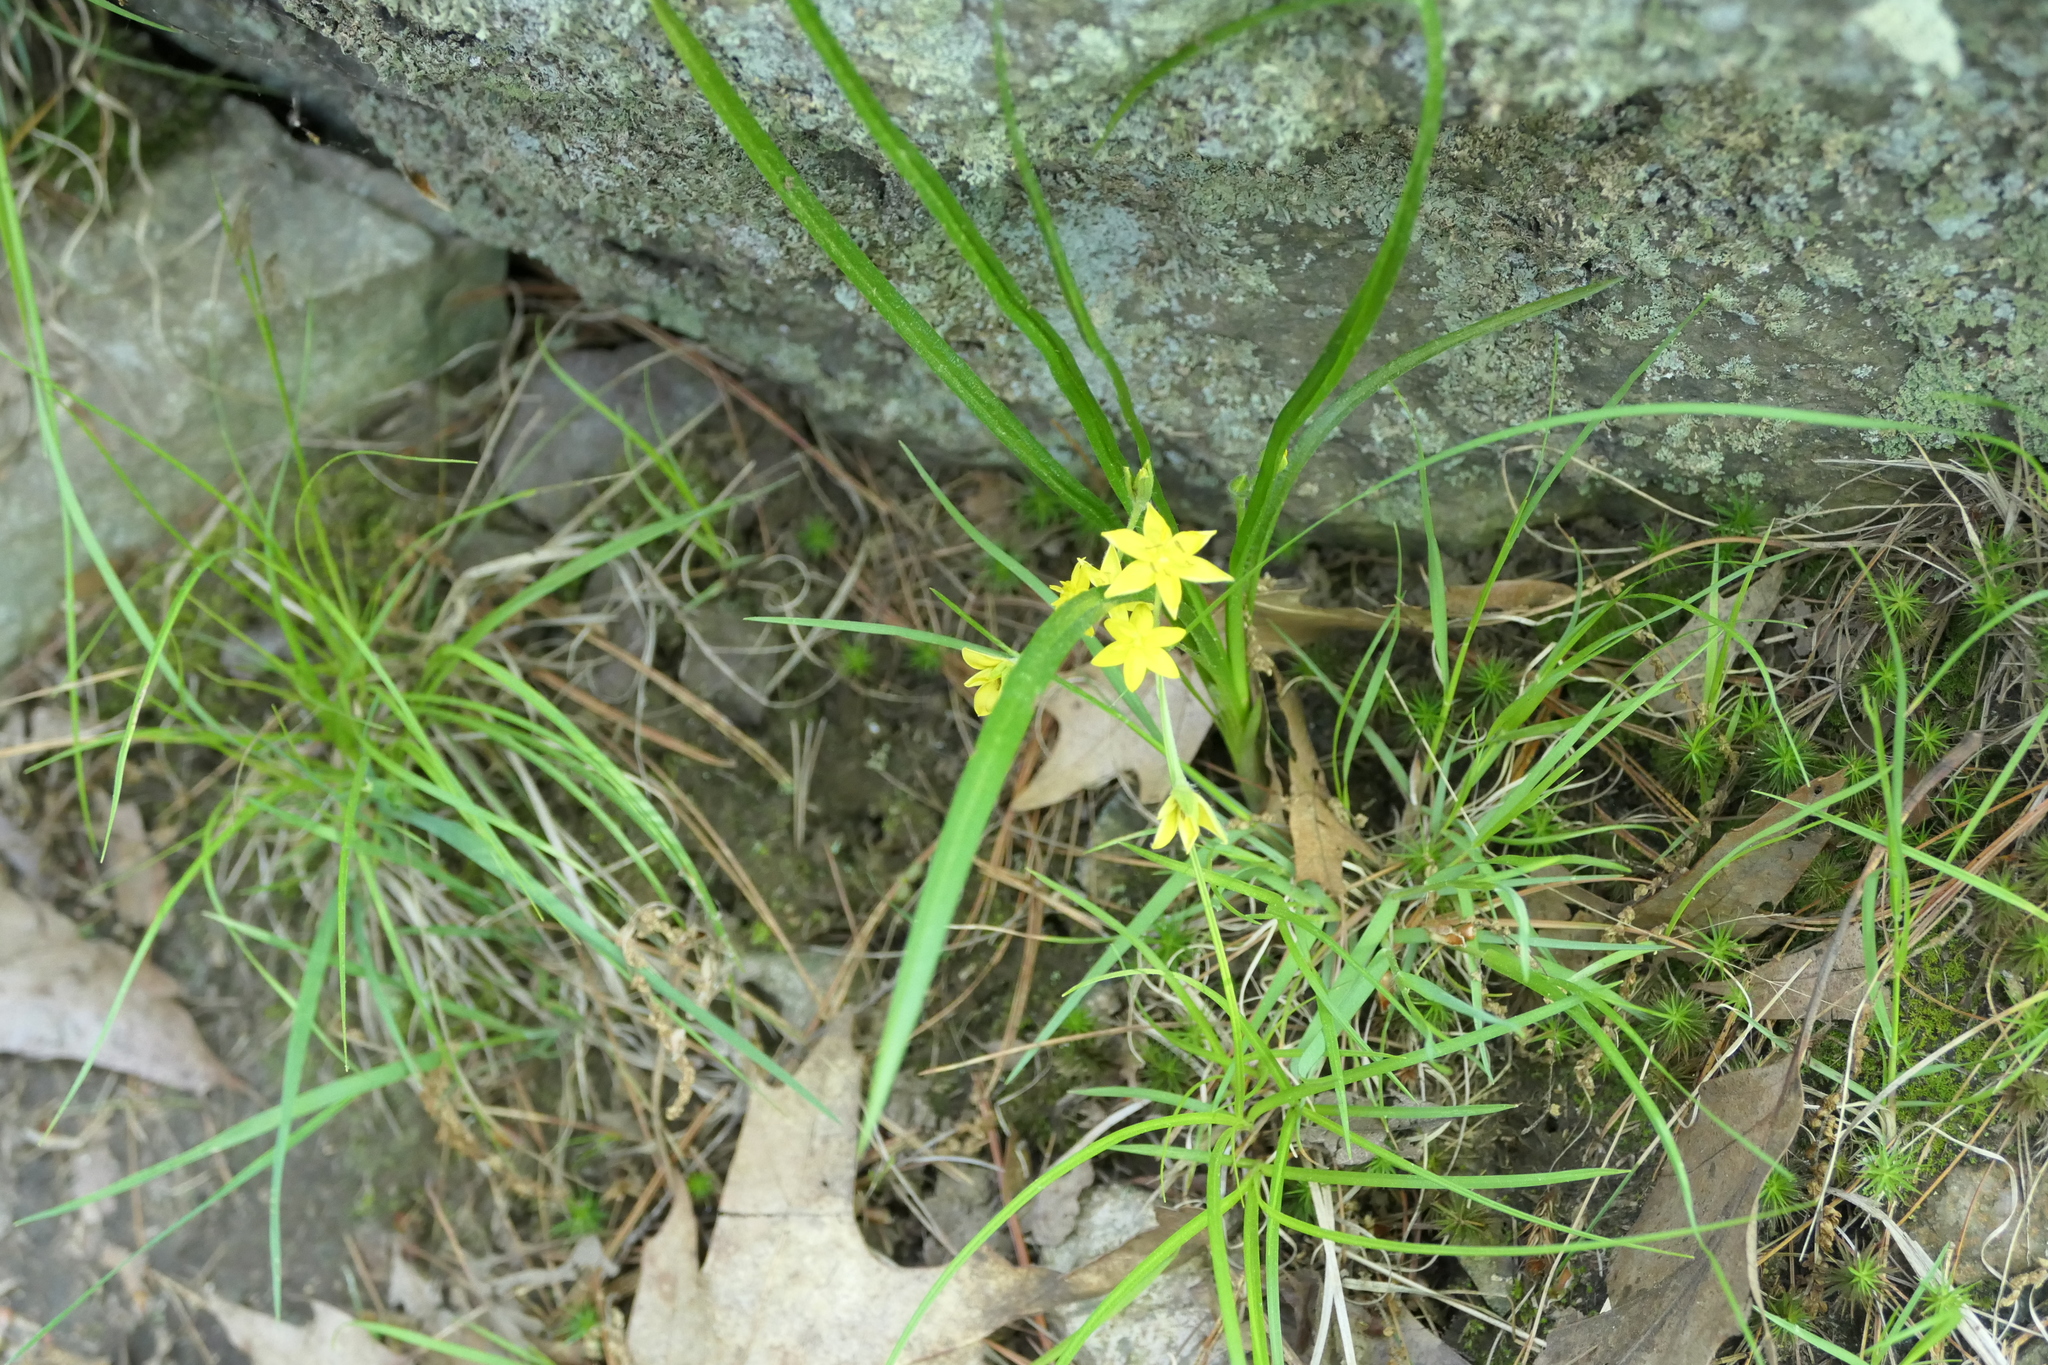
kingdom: Plantae
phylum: Tracheophyta
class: Liliopsida
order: Asparagales
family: Hypoxidaceae
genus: Hypoxis
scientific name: Hypoxis hirsuta
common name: Common goldstar
